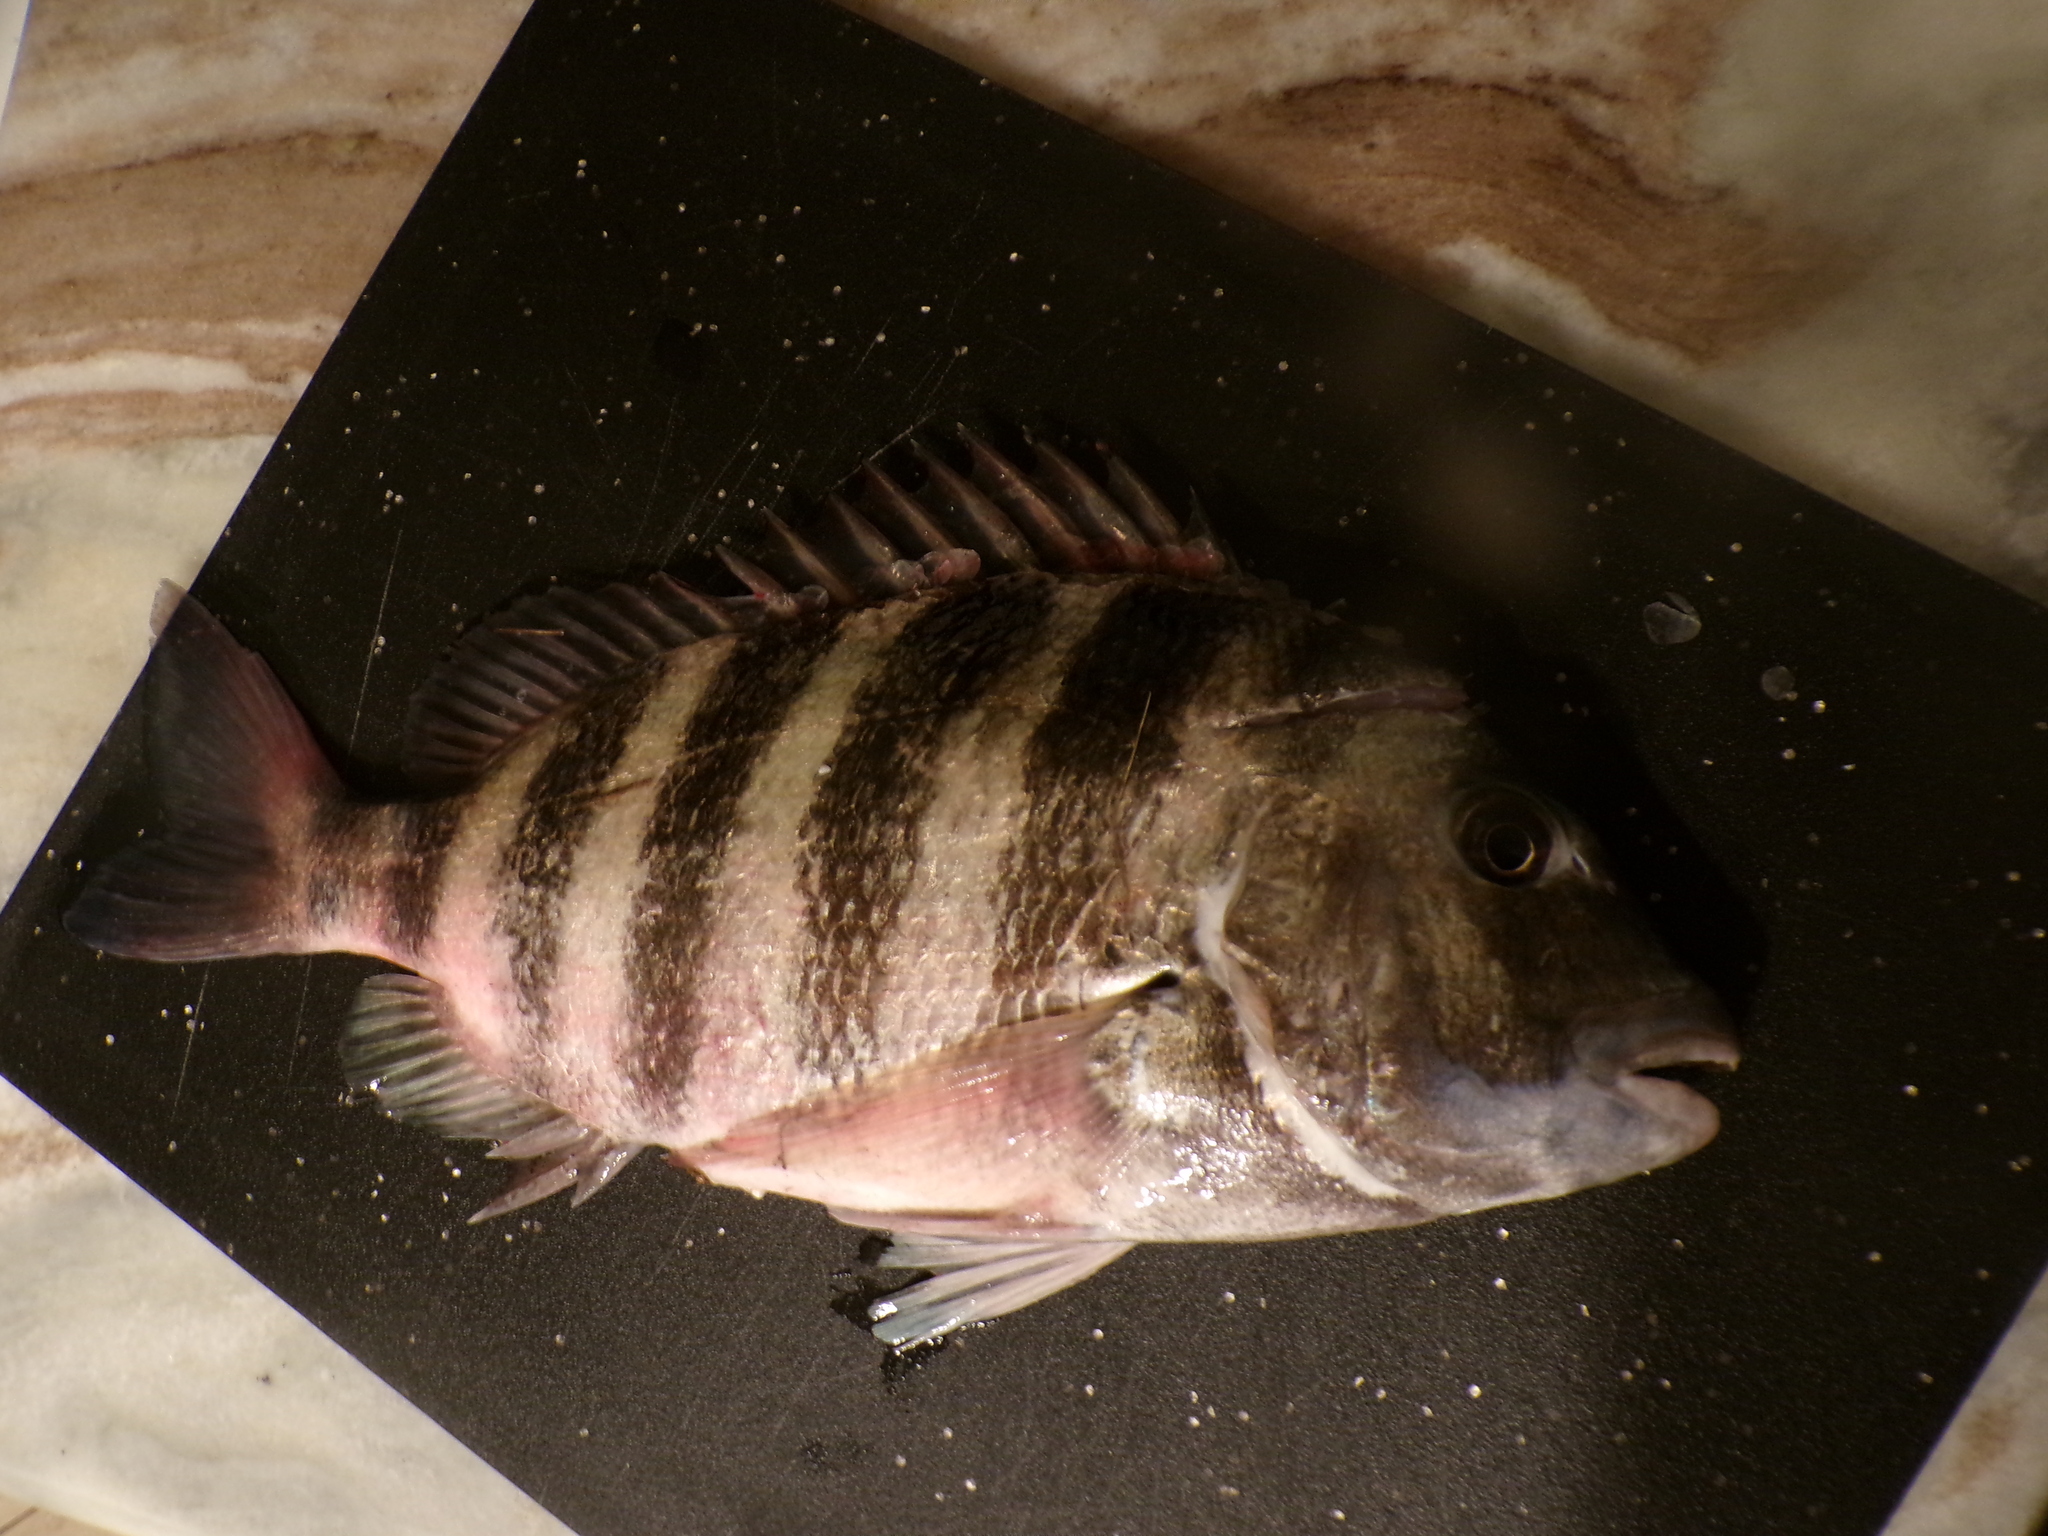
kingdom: Animalia
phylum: Chordata
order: Perciformes
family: Sparidae
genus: Archosargus
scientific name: Archosargus probatocephalus
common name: Sheepshead
